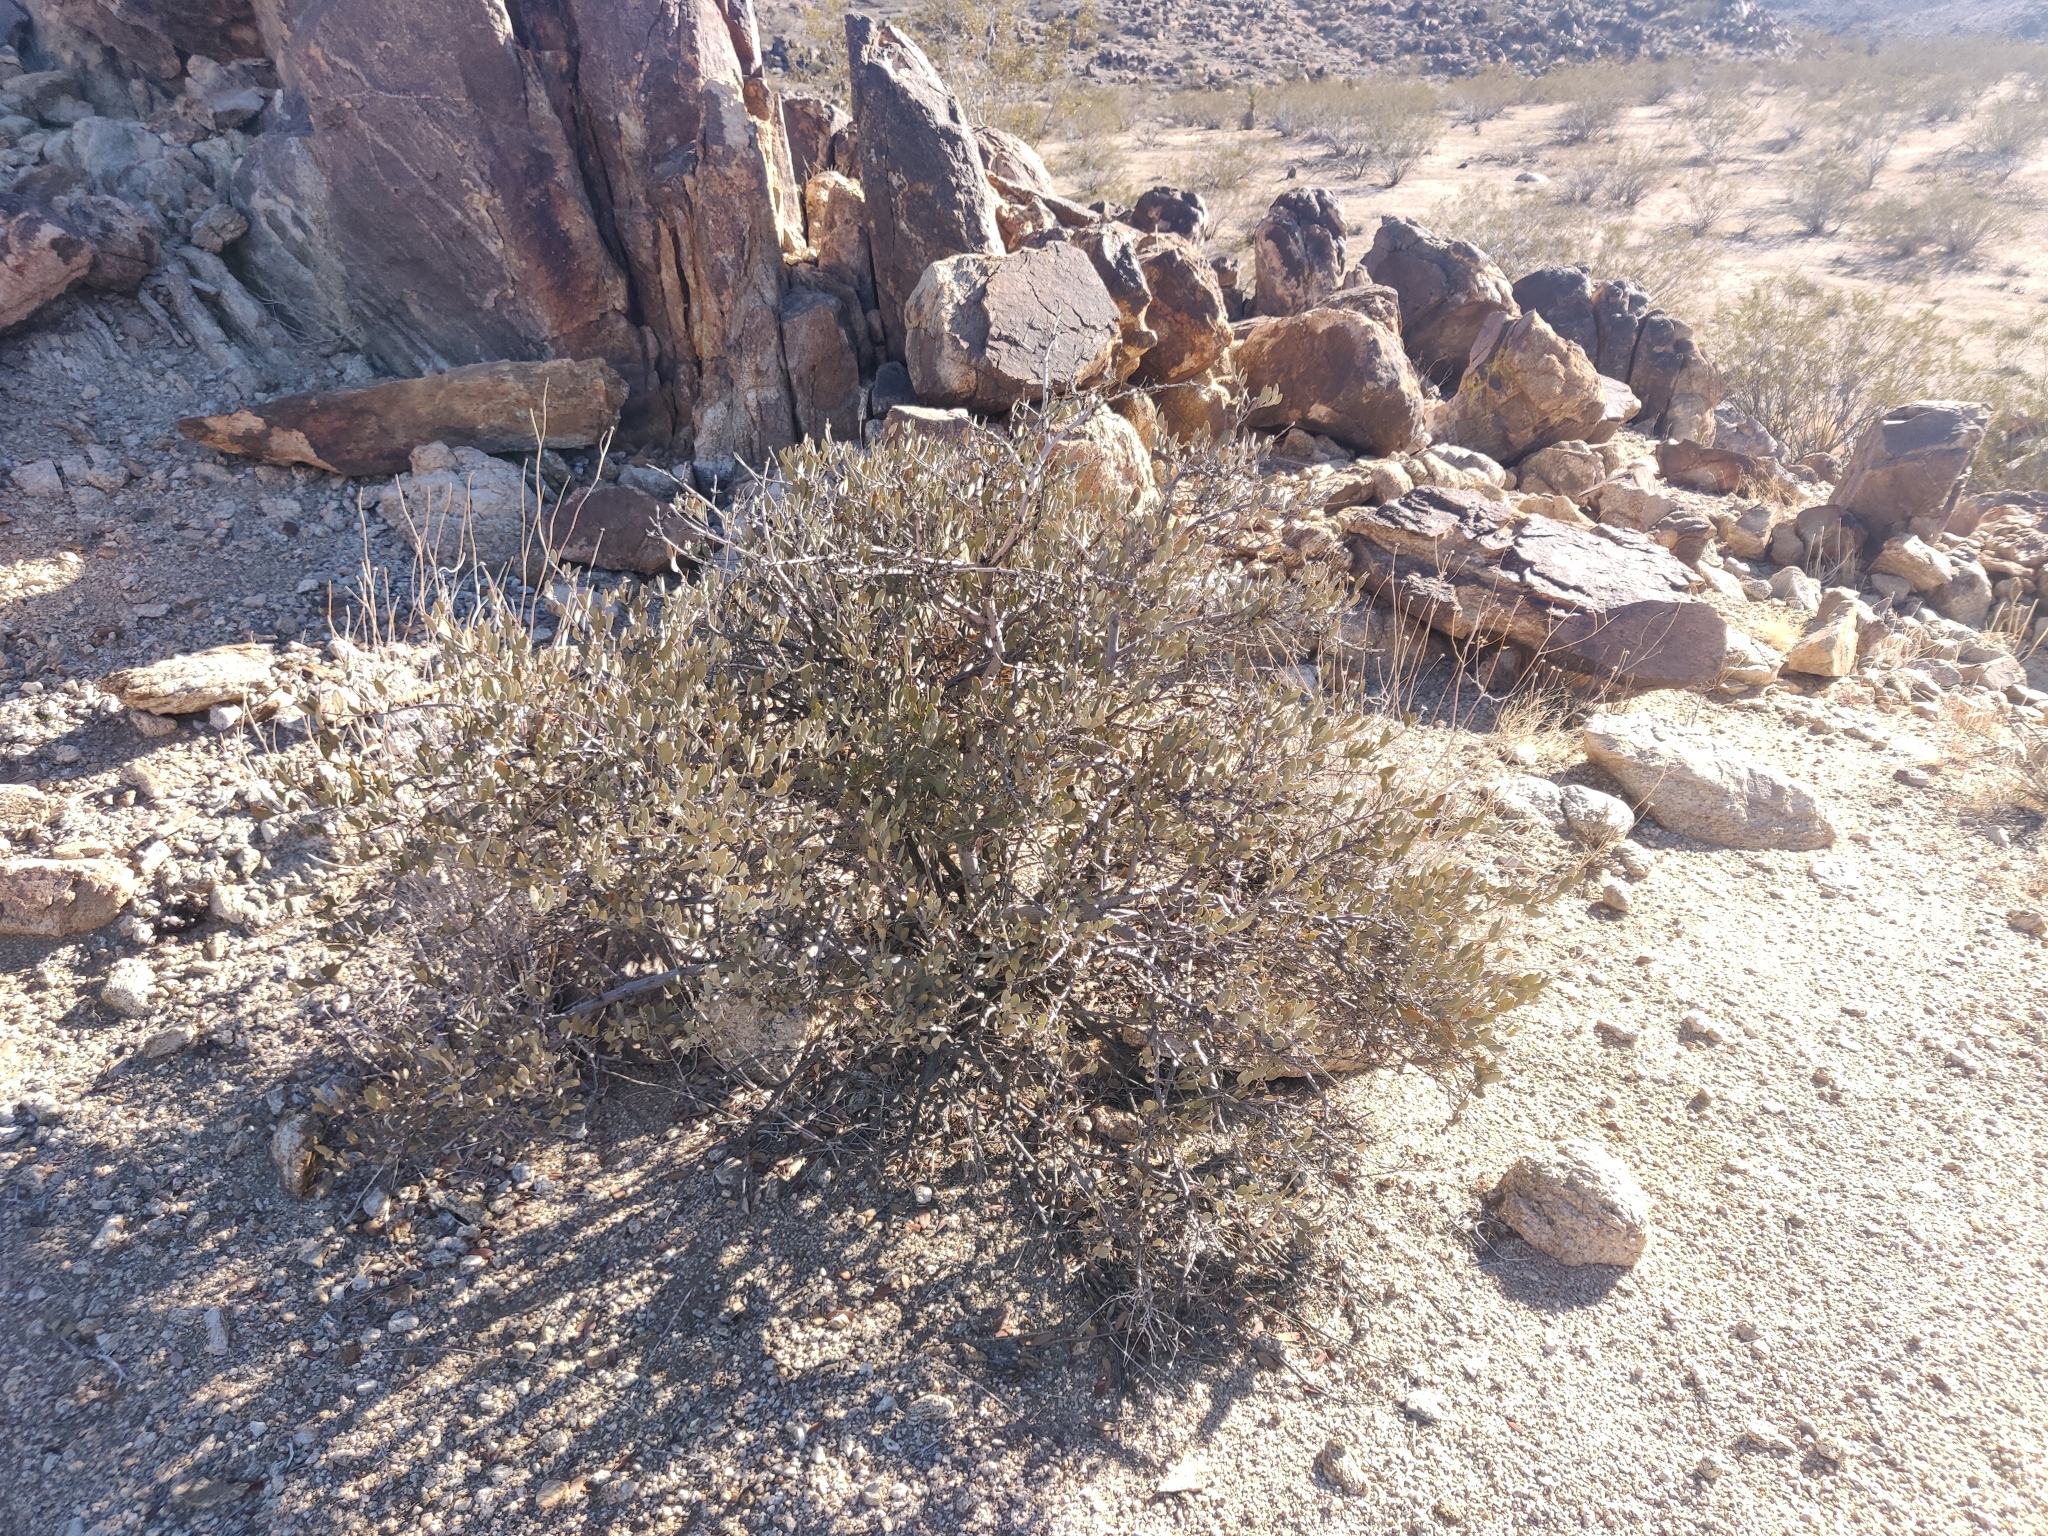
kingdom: Plantae
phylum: Tracheophyta
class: Magnoliopsida
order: Caryophyllales
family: Simmondsiaceae
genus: Simmondsia
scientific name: Simmondsia chinensis
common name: Jojoba
